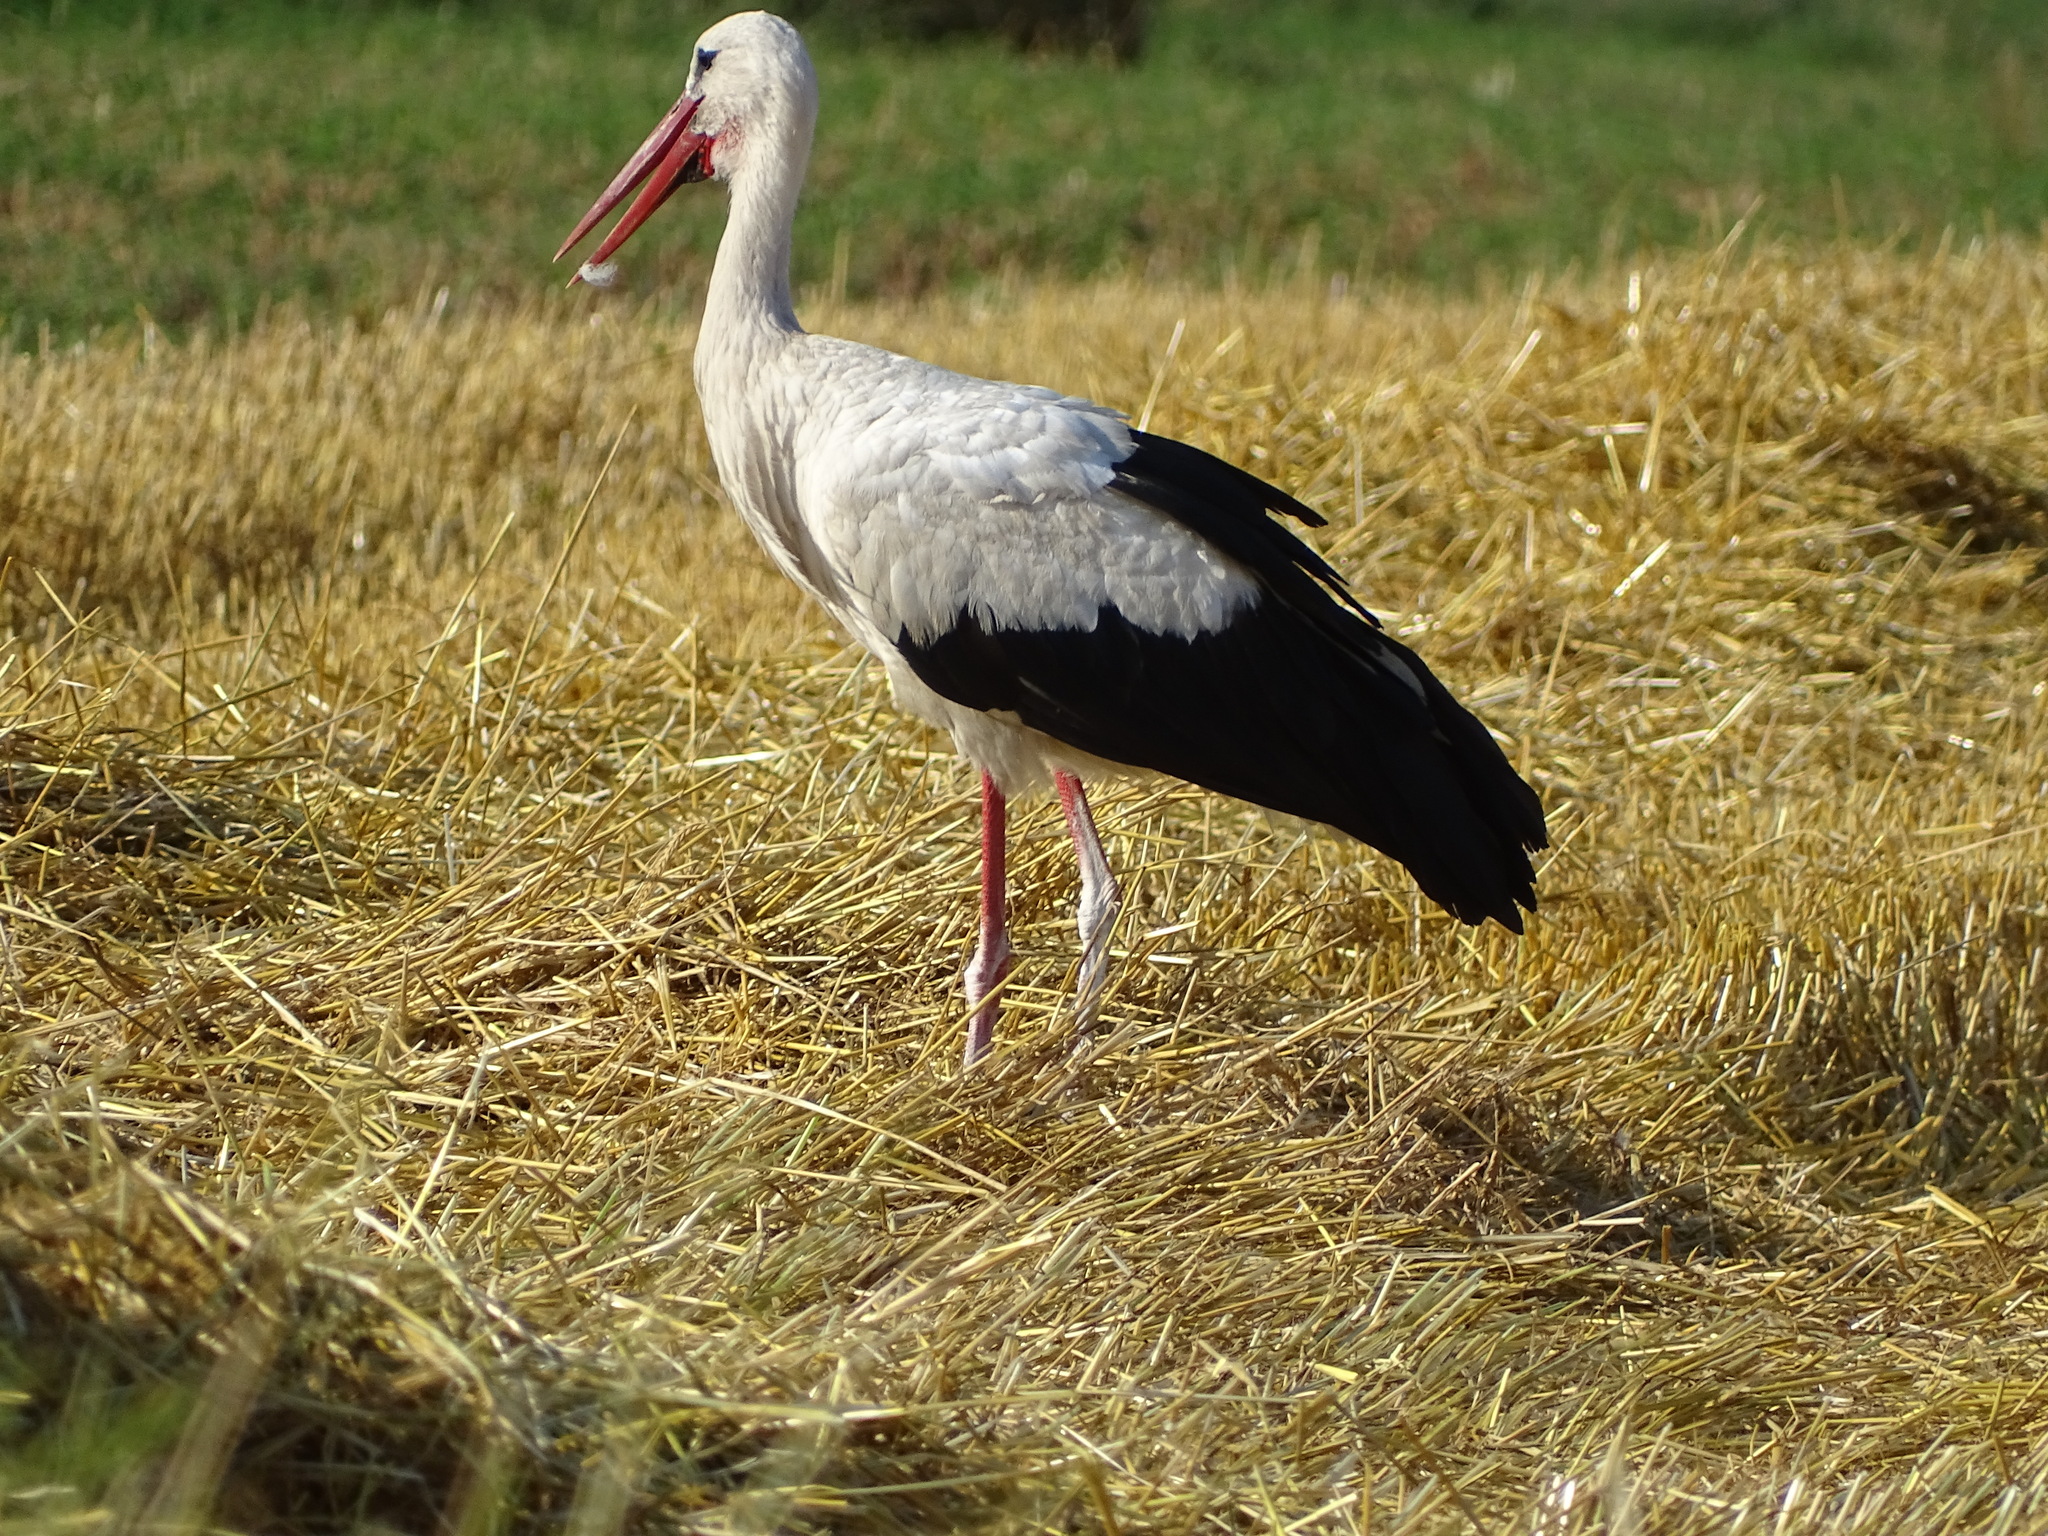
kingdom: Animalia
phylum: Chordata
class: Aves
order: Ciconiiformes
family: Ciconiidae
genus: Ciconia
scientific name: Ciconia ciconia
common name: White stork
